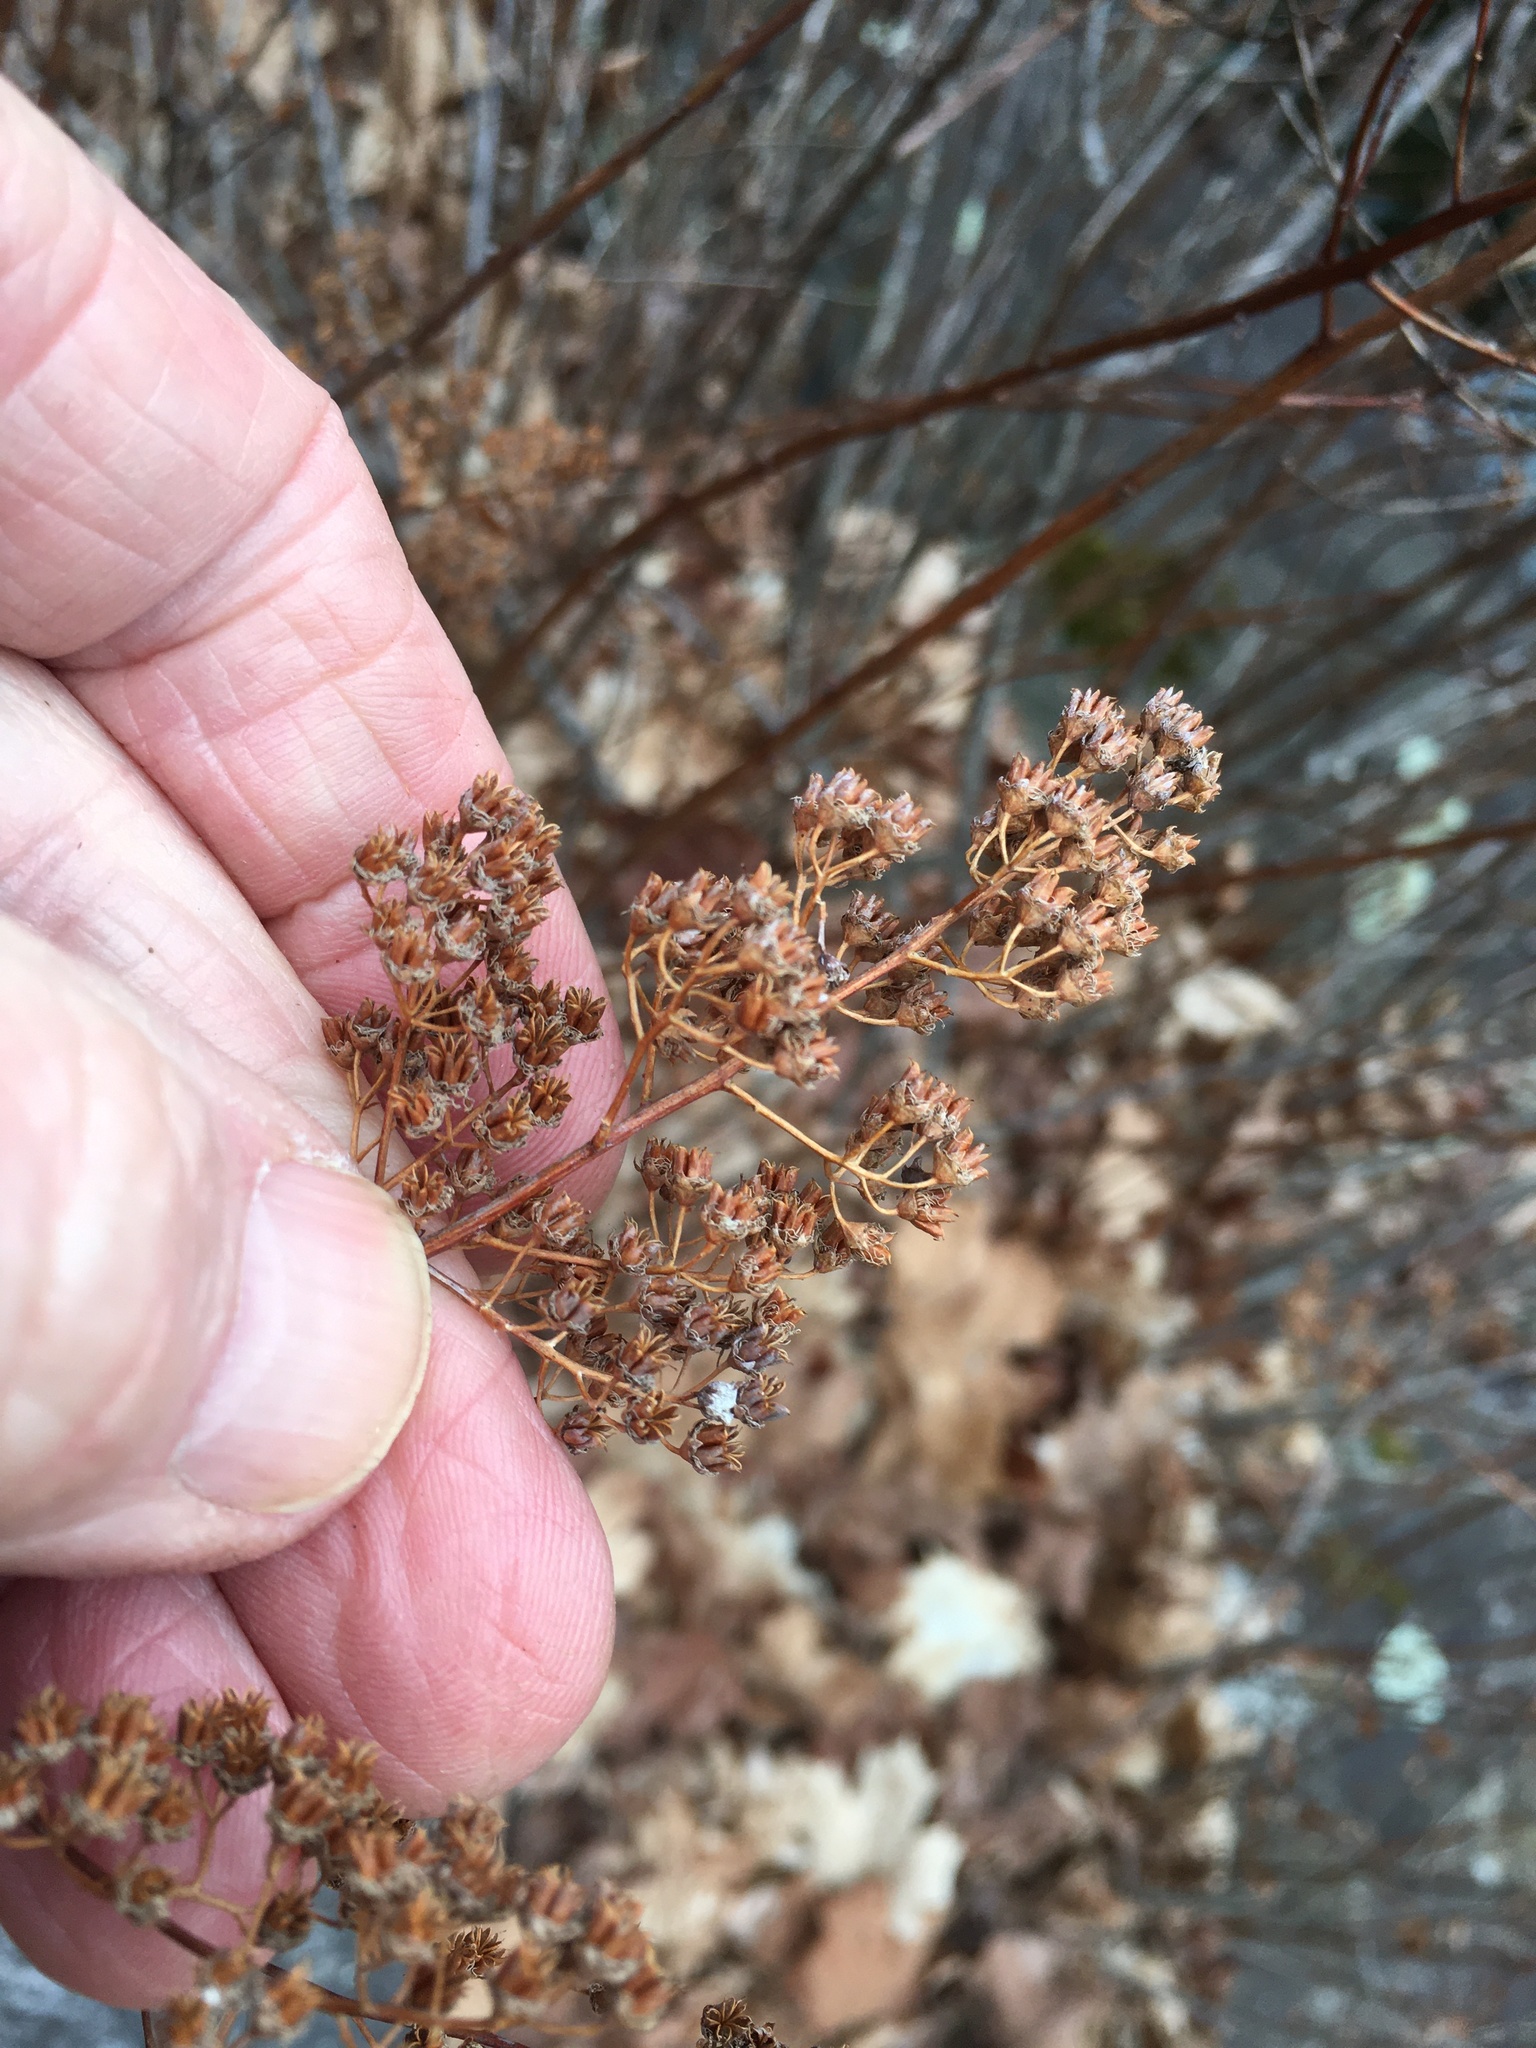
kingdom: Plantae
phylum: Tracheophyta
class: Magnoliopsida
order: Rosales
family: Rosaceae
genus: Spiraea
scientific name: Spiraea alba
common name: Pale bridewort
